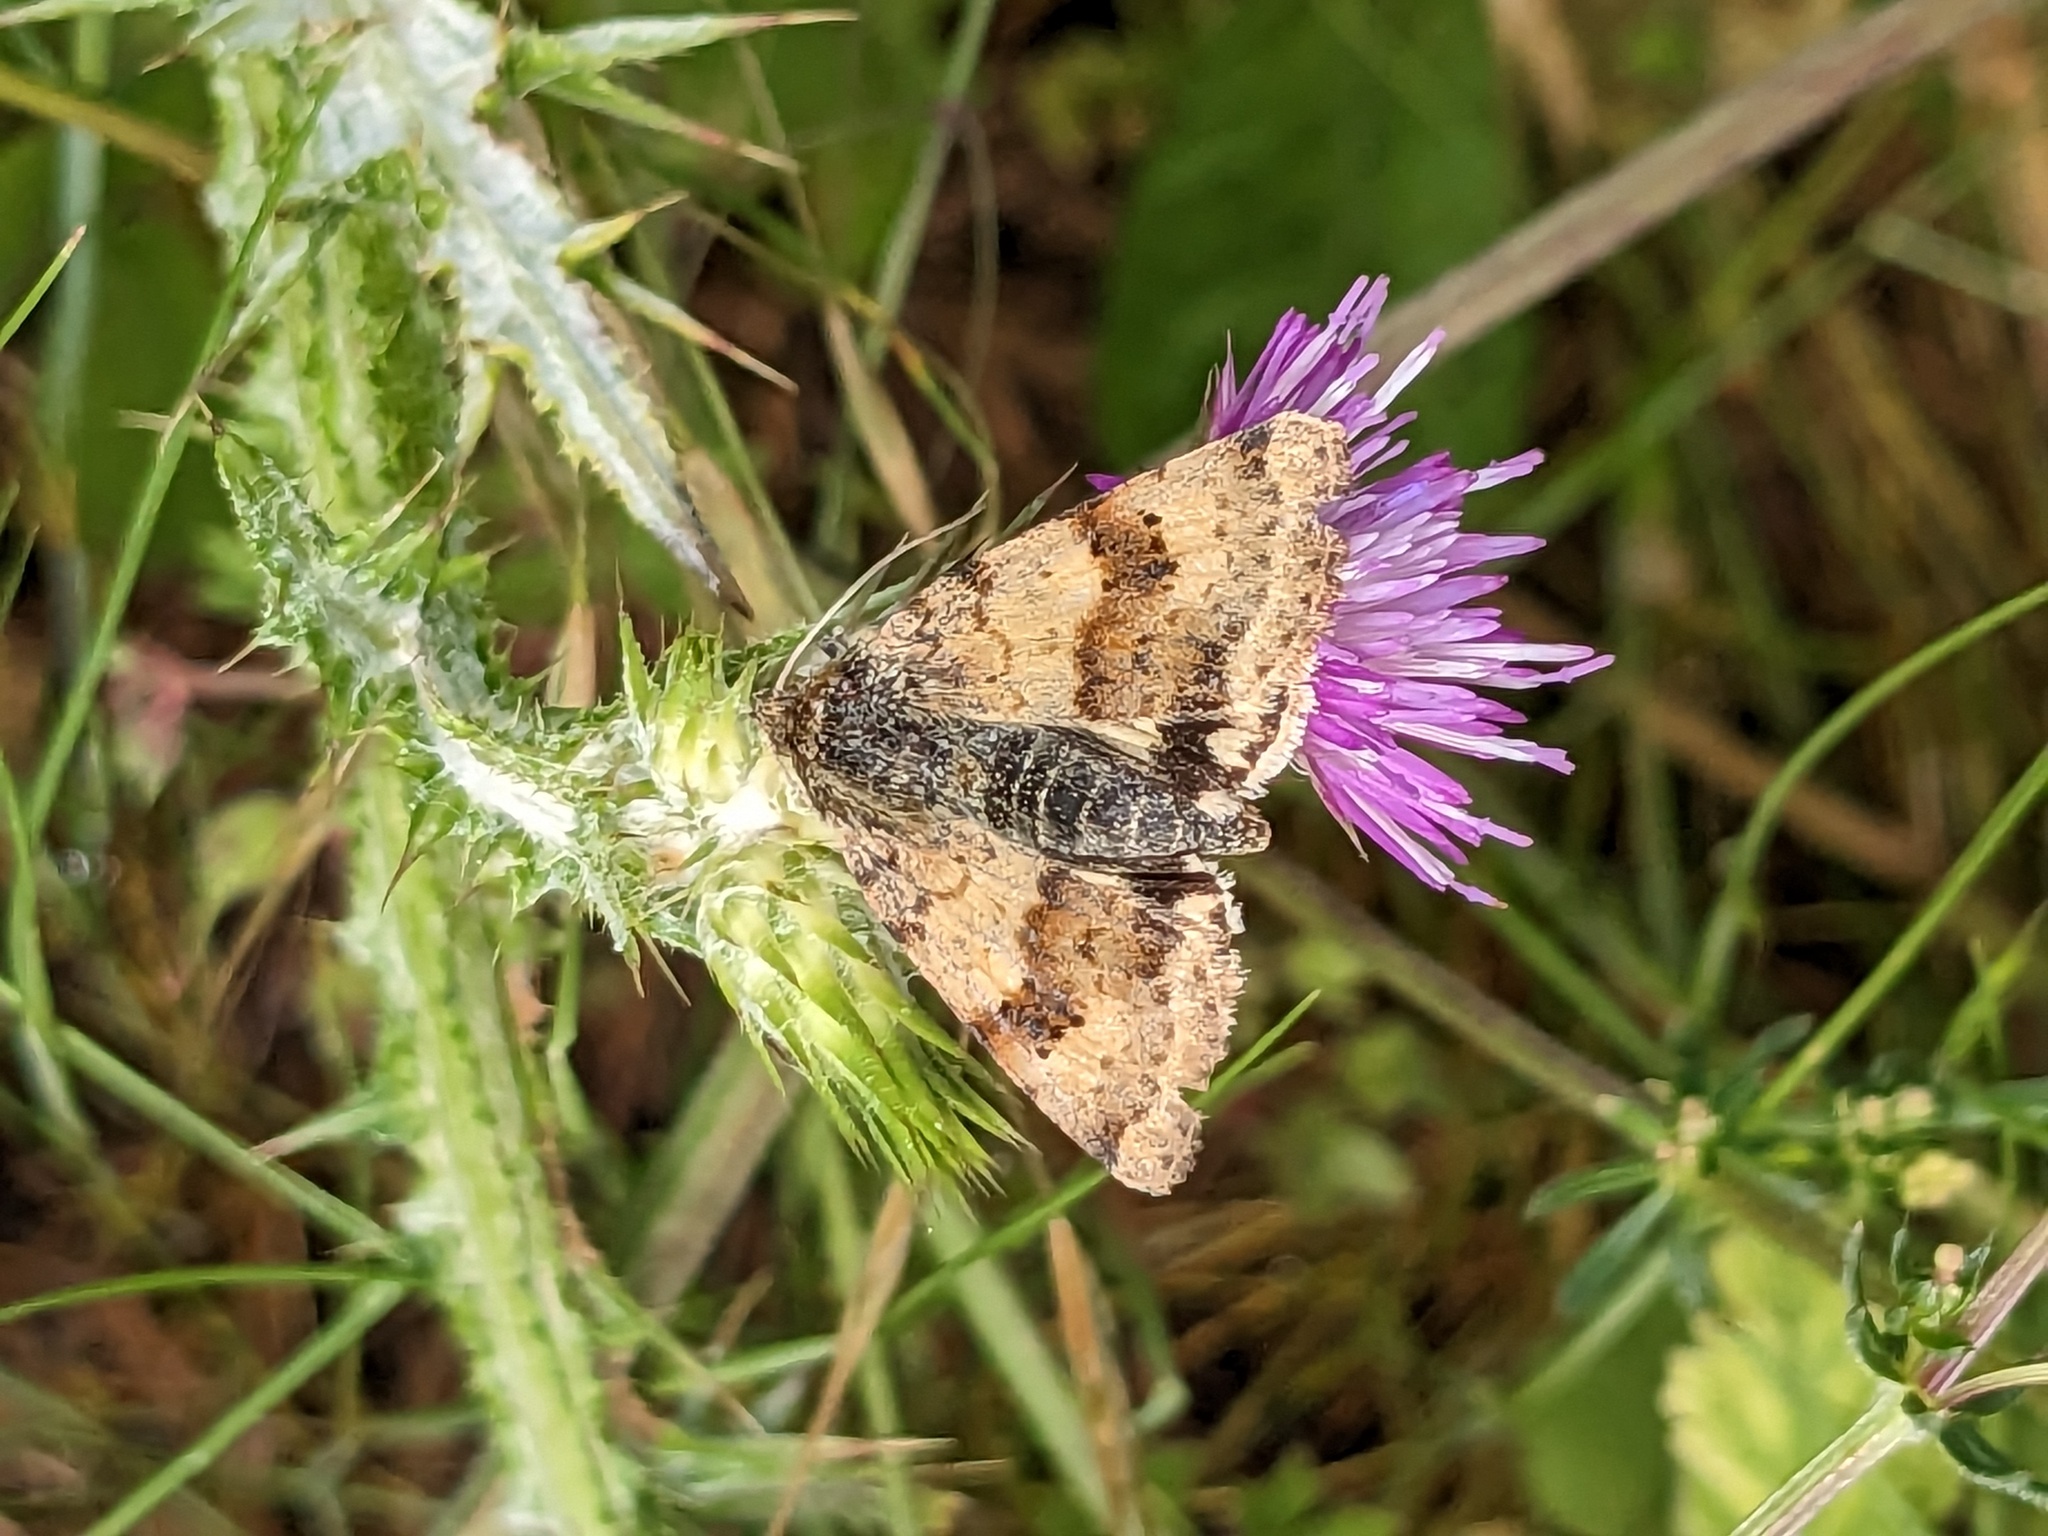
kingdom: Animalia
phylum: Arthropoda
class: Insecta
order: Lepidoptera
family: Noctuidae
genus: Heliothis
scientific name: Heliothis viriplaca
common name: Marbled clover
